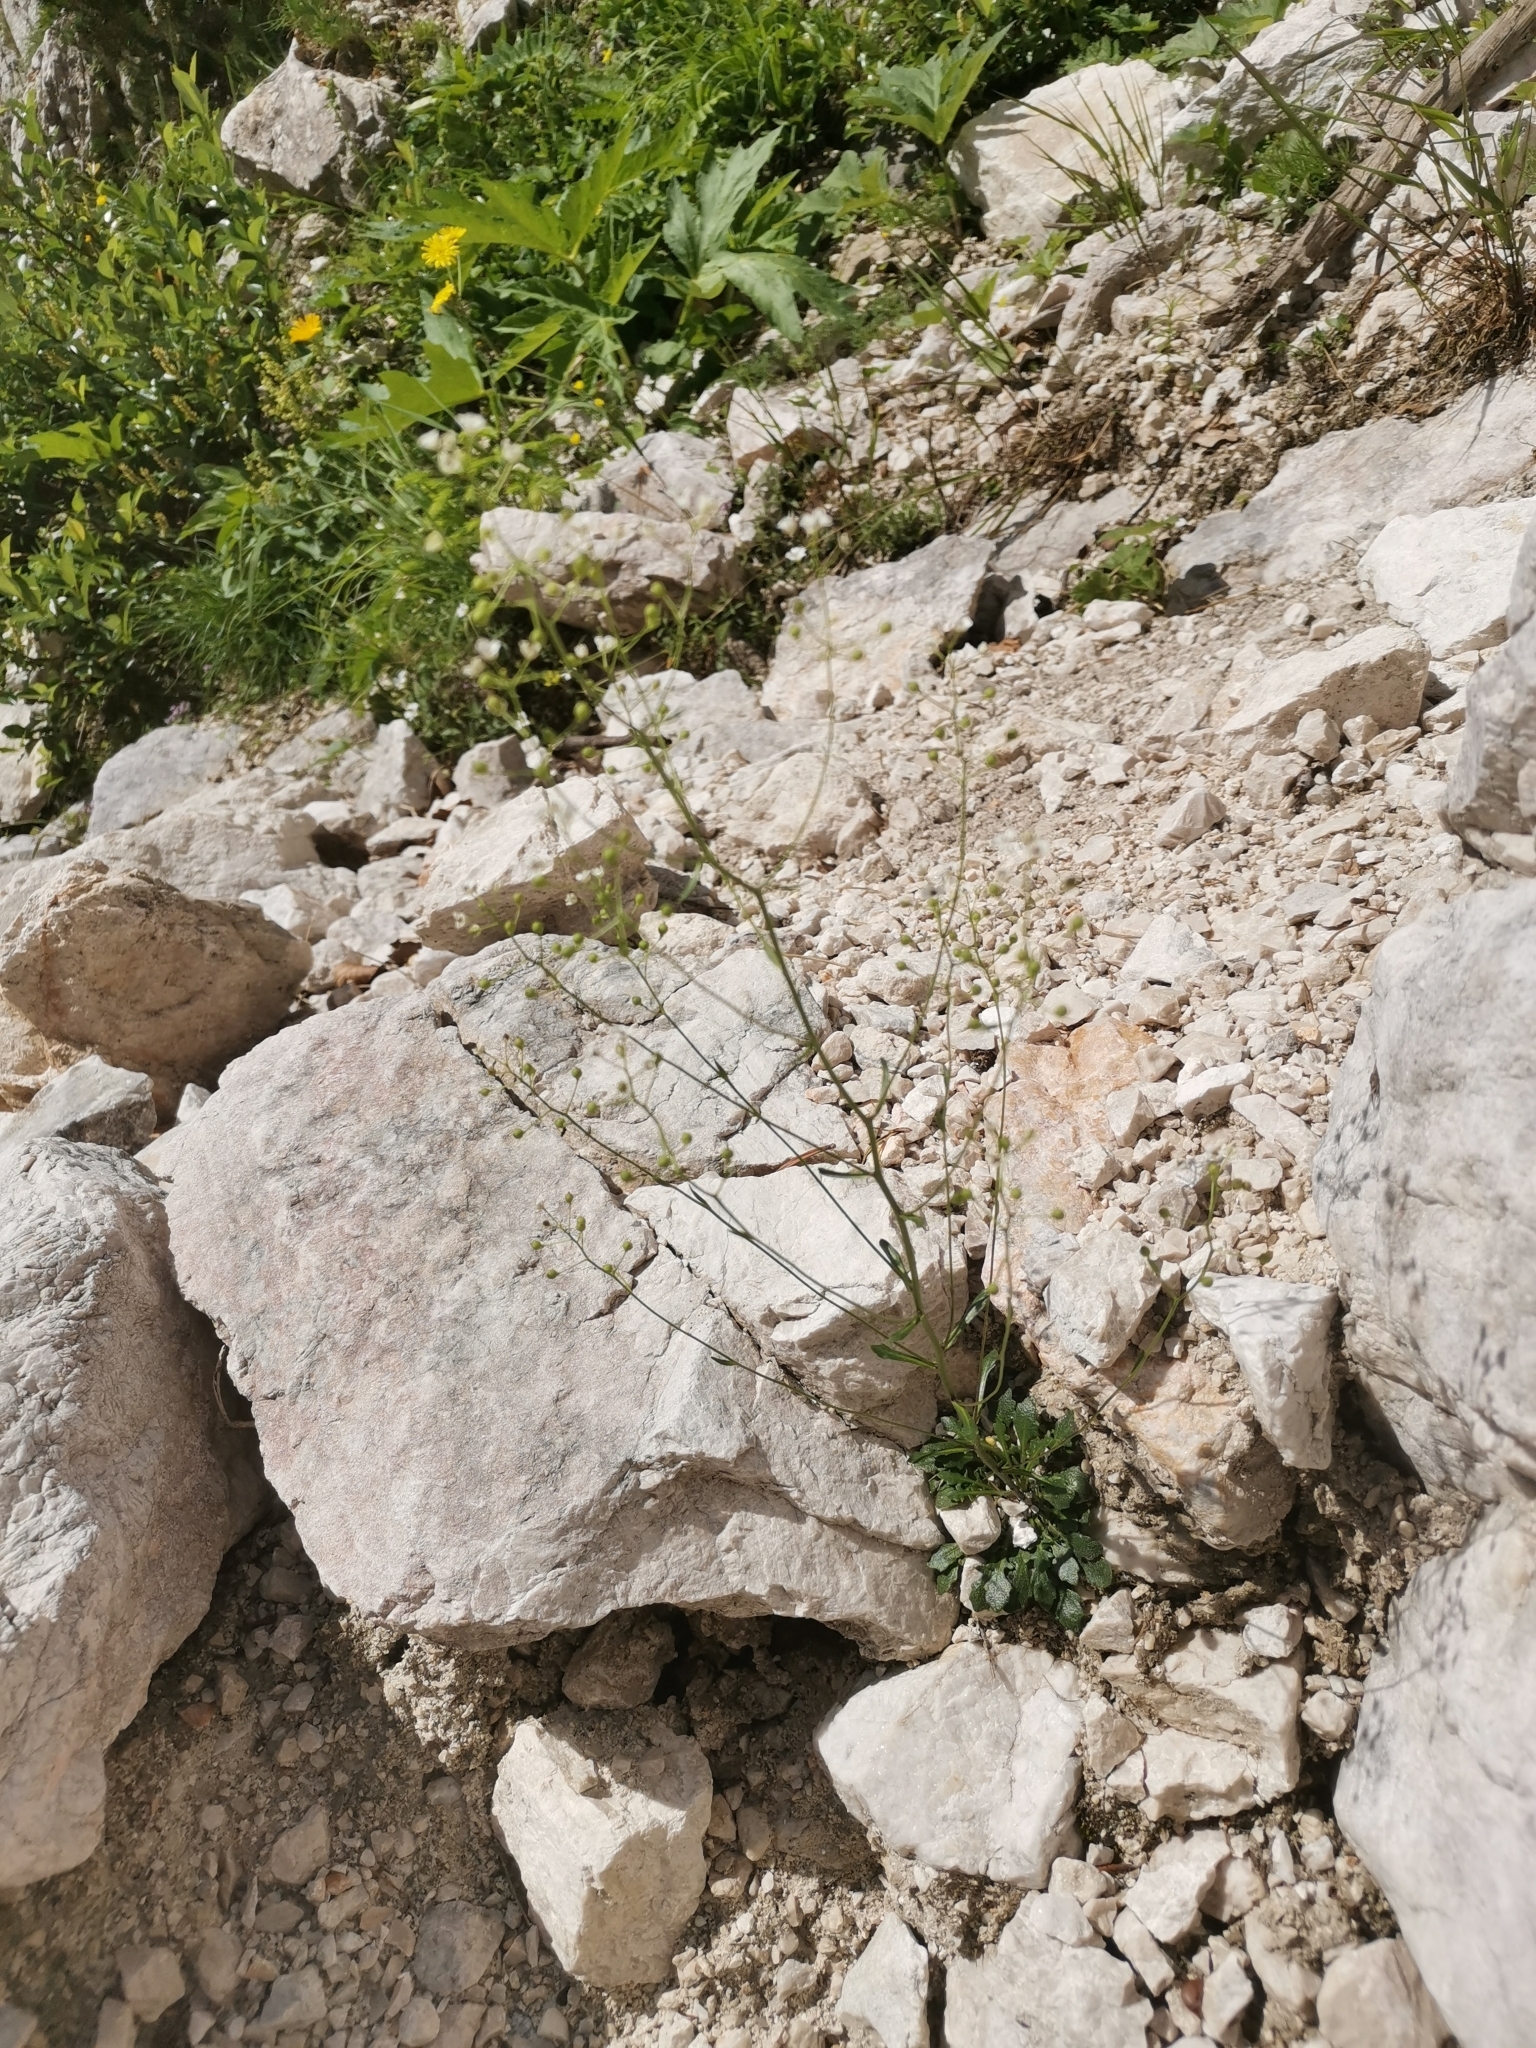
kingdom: Plantae
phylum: Tracheophyta
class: Magnoliopsida
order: Brassicales
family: Brassicaceae
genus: Kernera
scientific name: Kernera saxatilis
